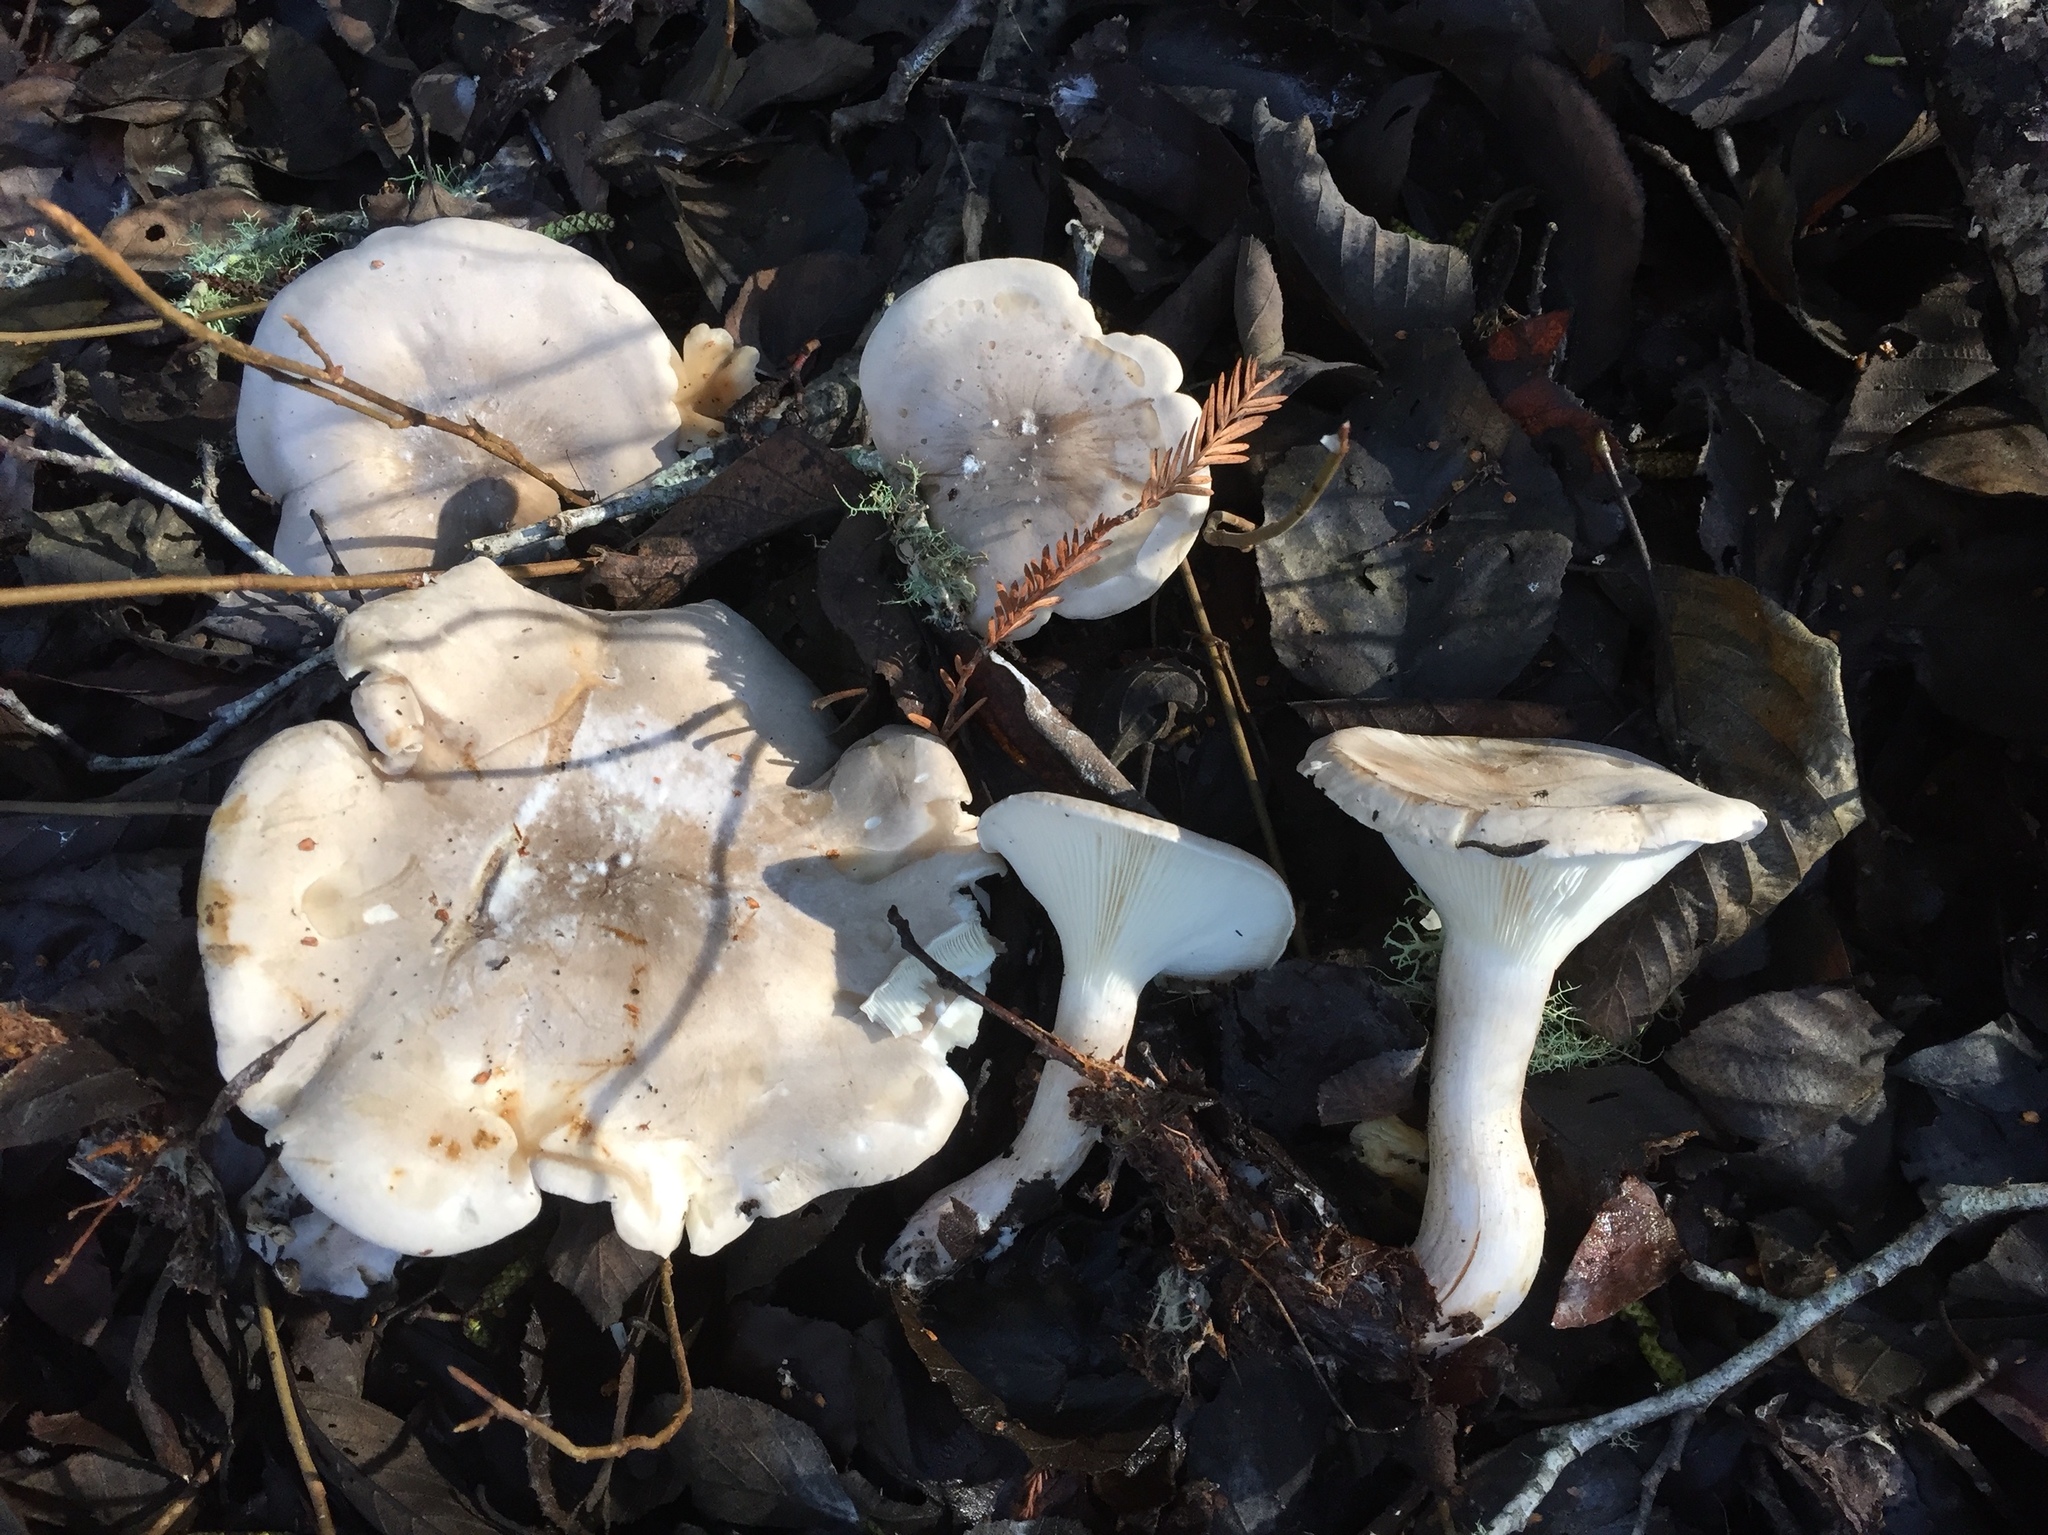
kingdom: Fungi
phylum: Basidiomycota
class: Agaricomycetes
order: Agaricales
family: Tricholomataceae
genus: Clitocybe
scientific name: Clitocybe nebularis
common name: Clouded agaric
